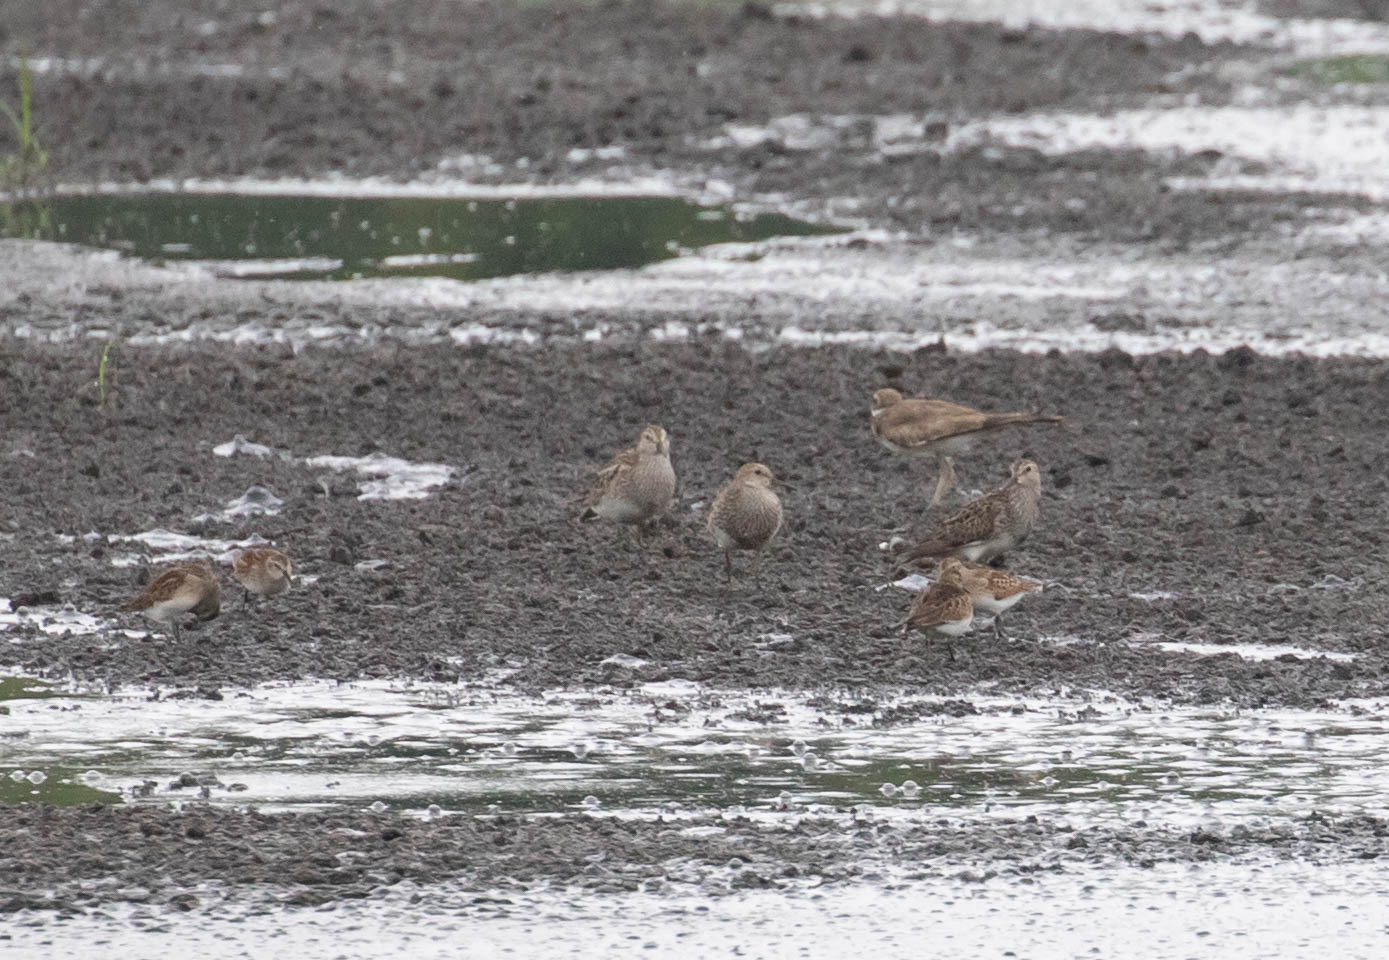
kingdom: Animalia
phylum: Chordata
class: Aves
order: Charadriiformes
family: Scolopacidae
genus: Calidris
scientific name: Calidris melanotos
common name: Pectoral sandpiper
